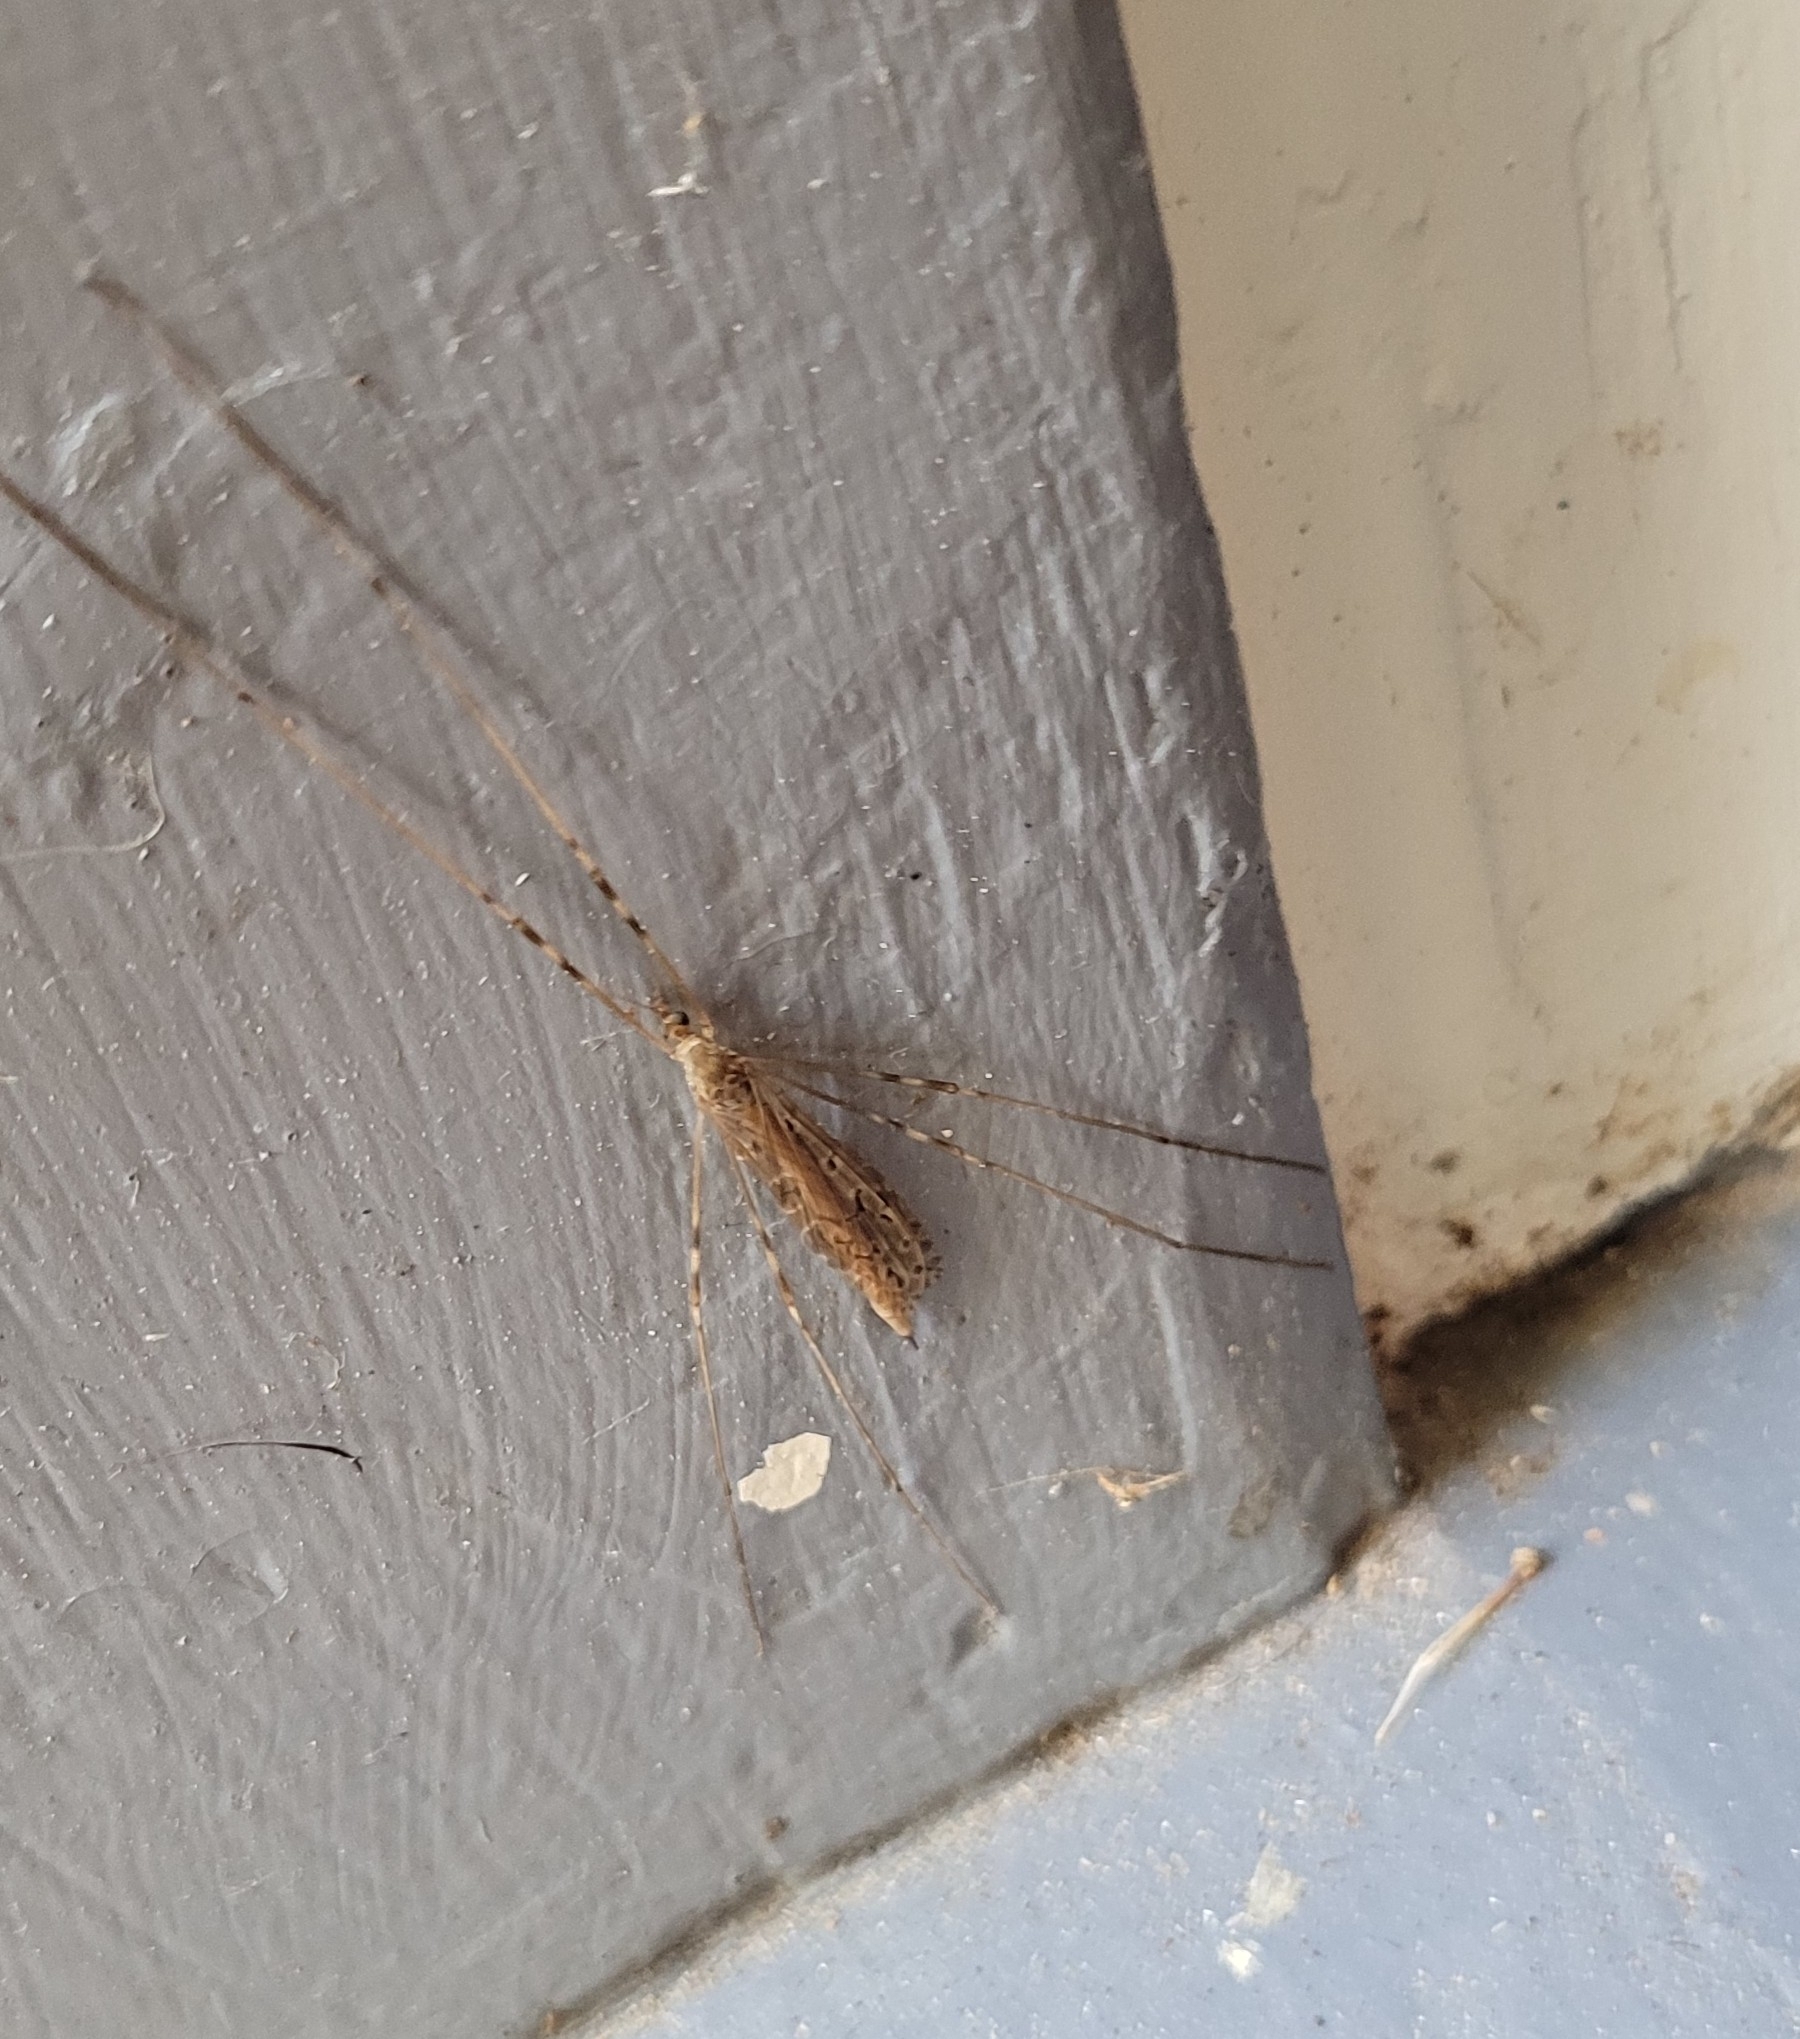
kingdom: Animalia
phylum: Arthropoda
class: Insecta
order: Diptera
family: Limoniidae
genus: Austrolimnophila
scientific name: Austrolimnophila crassipes
